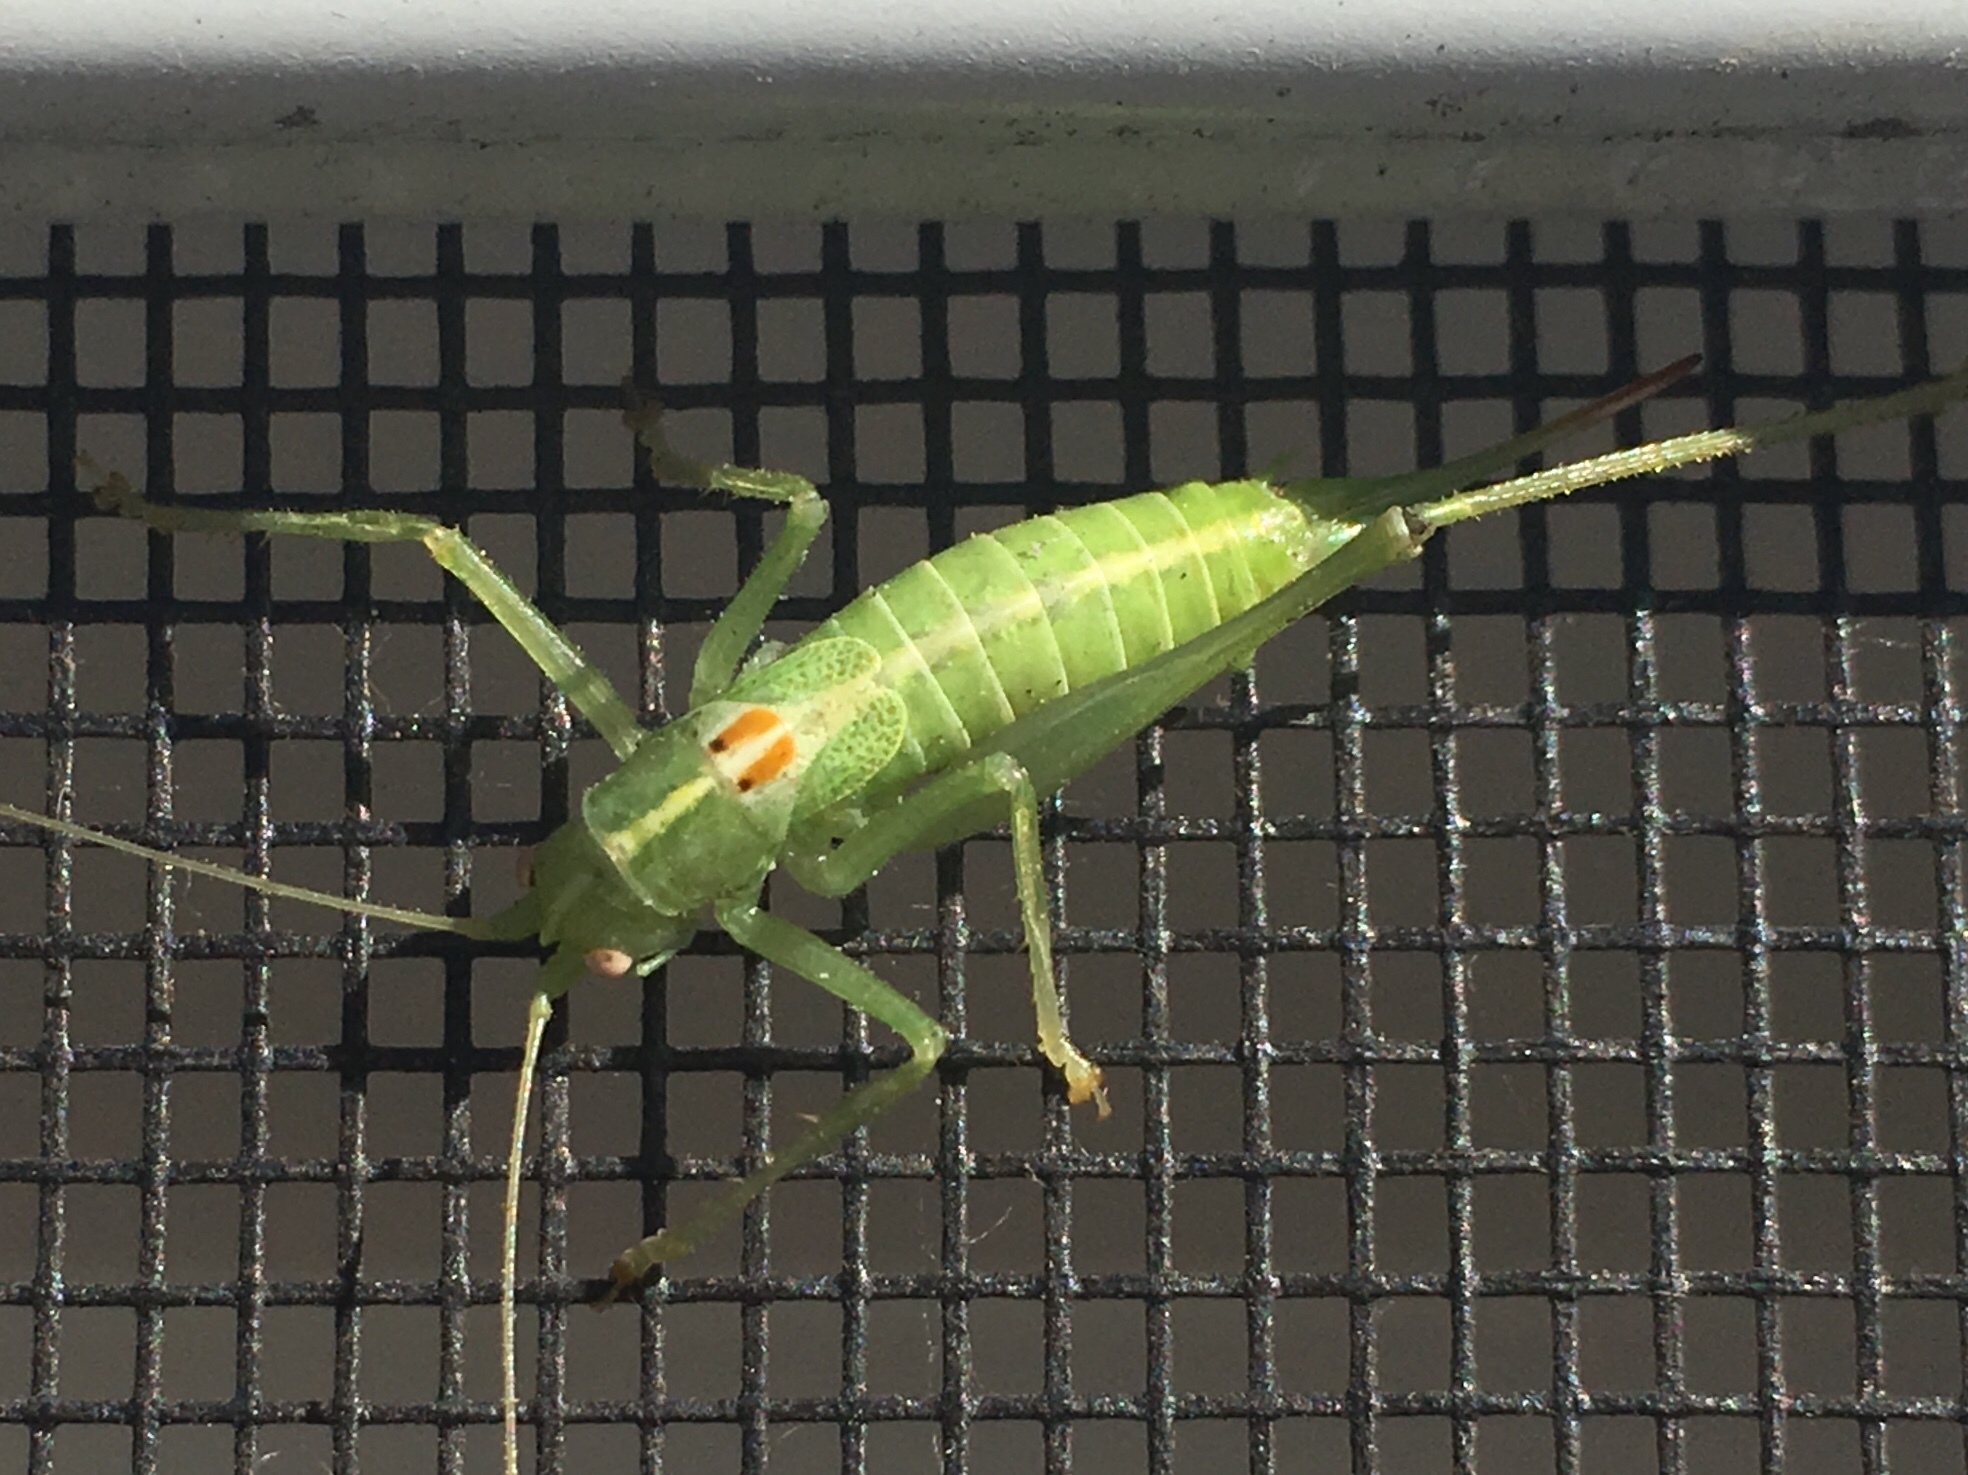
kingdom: Animalia
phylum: Arthropoda
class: Insecta
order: Orthoptera
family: Tettigoniidae
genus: Meconema
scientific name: Meconema meridionale
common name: Southern oak bush-cricket
